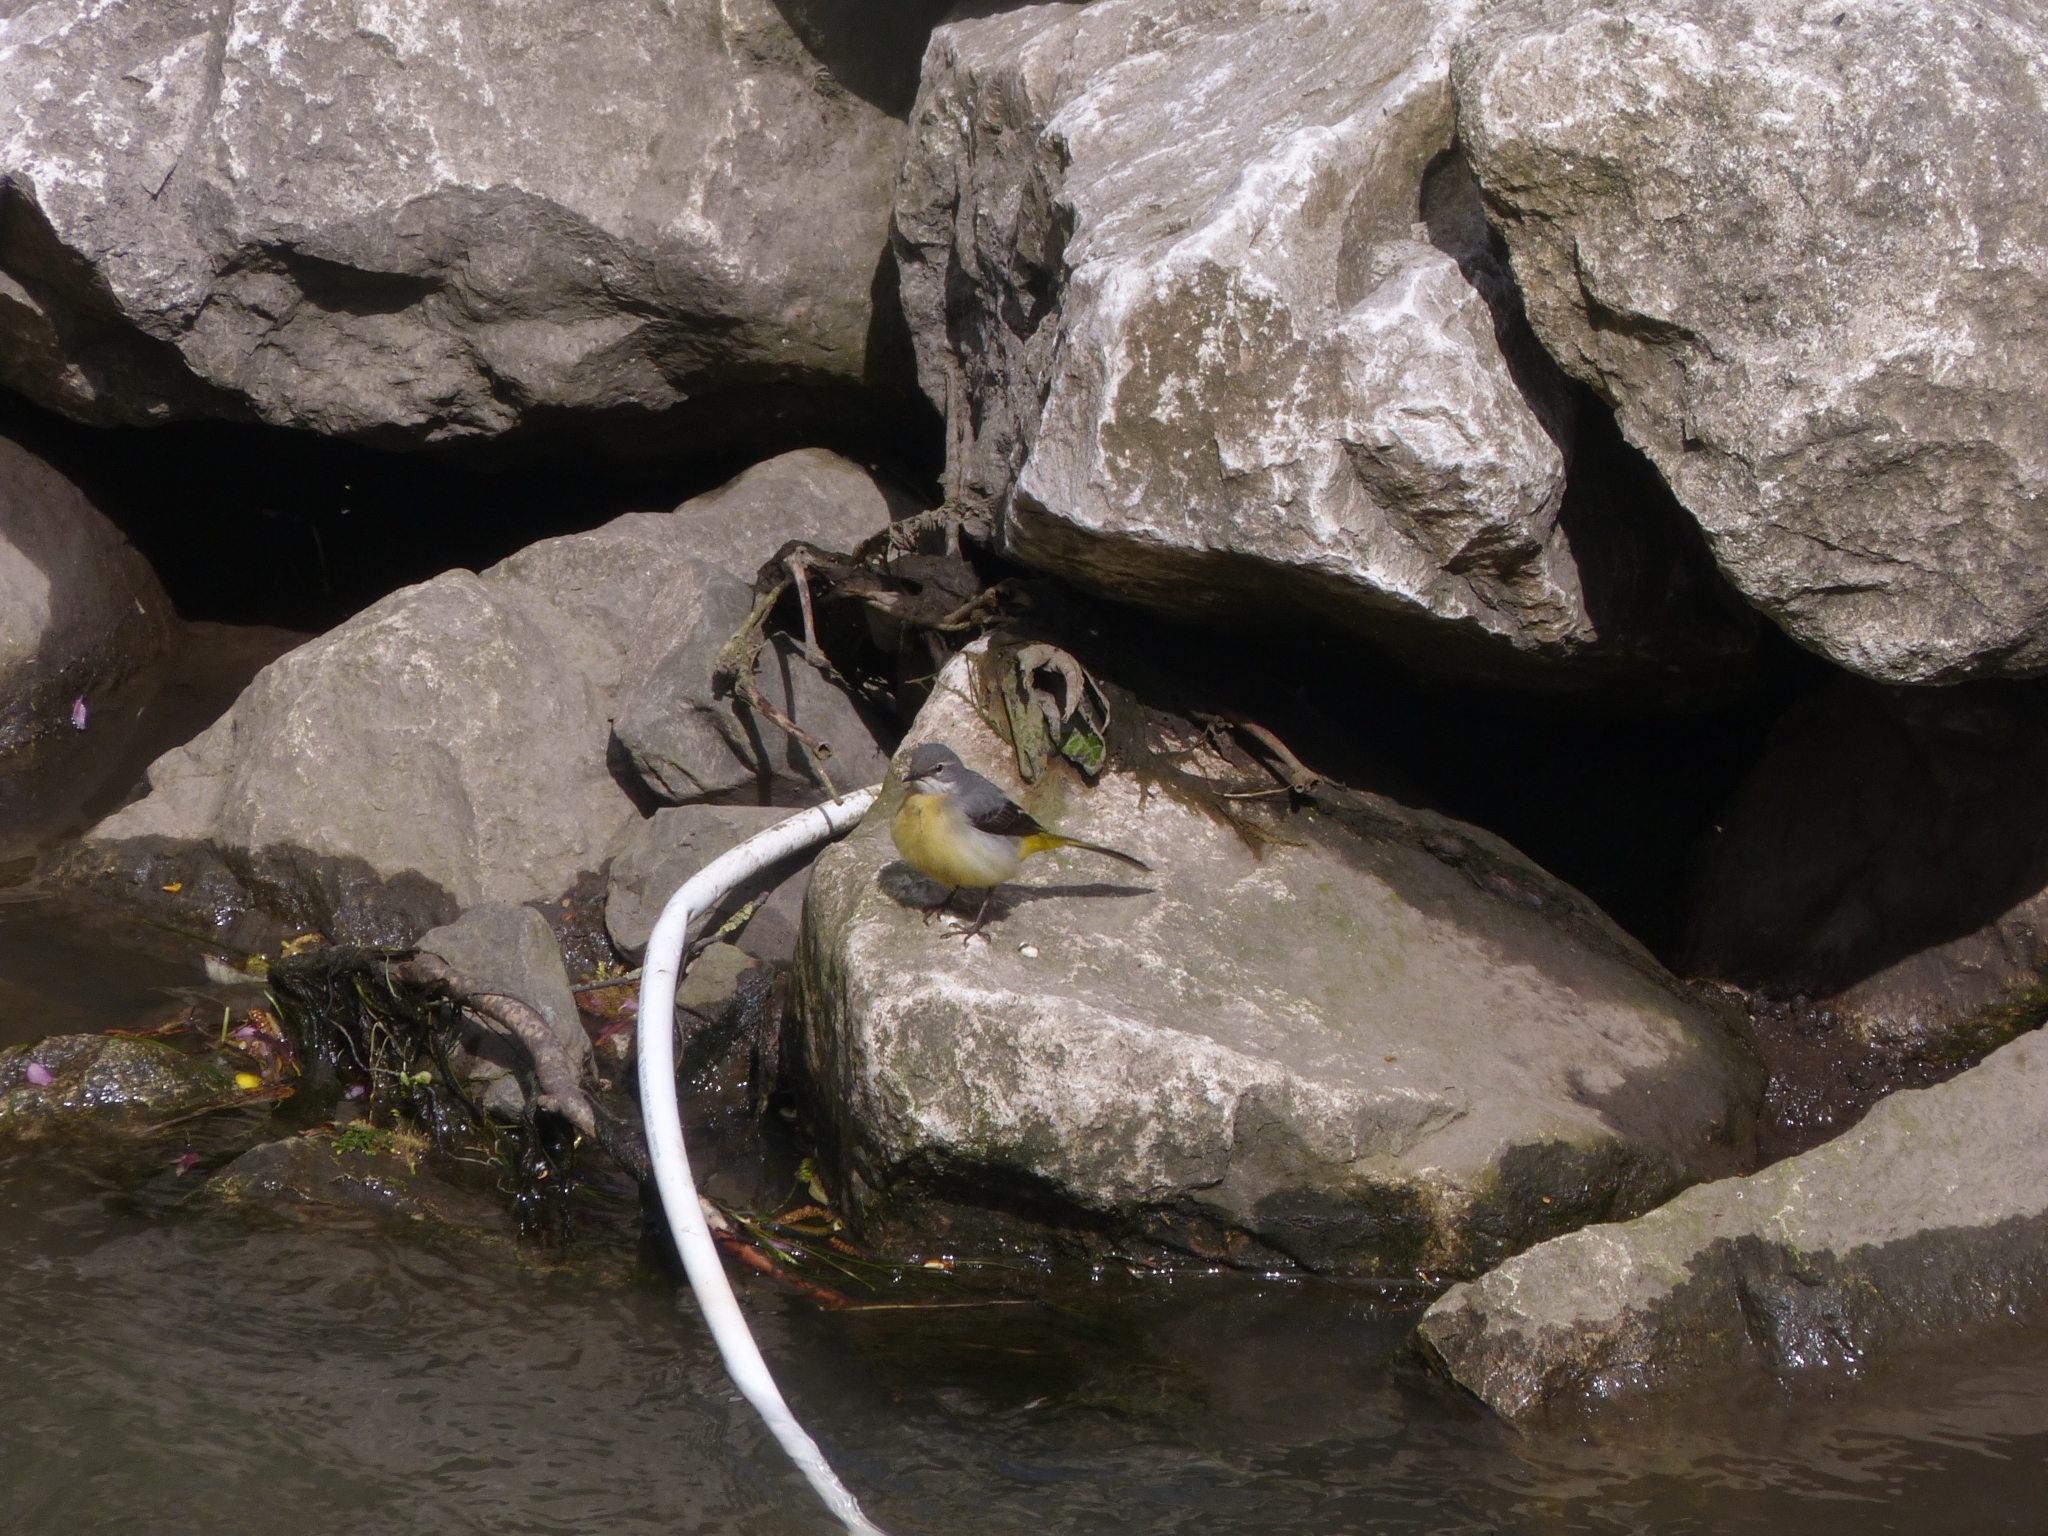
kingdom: Animalia
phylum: Chordata
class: Aves
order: Passeriformes
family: Motacillidae
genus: Motacilla
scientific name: Motacilla cinerea
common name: Grey wagtail
